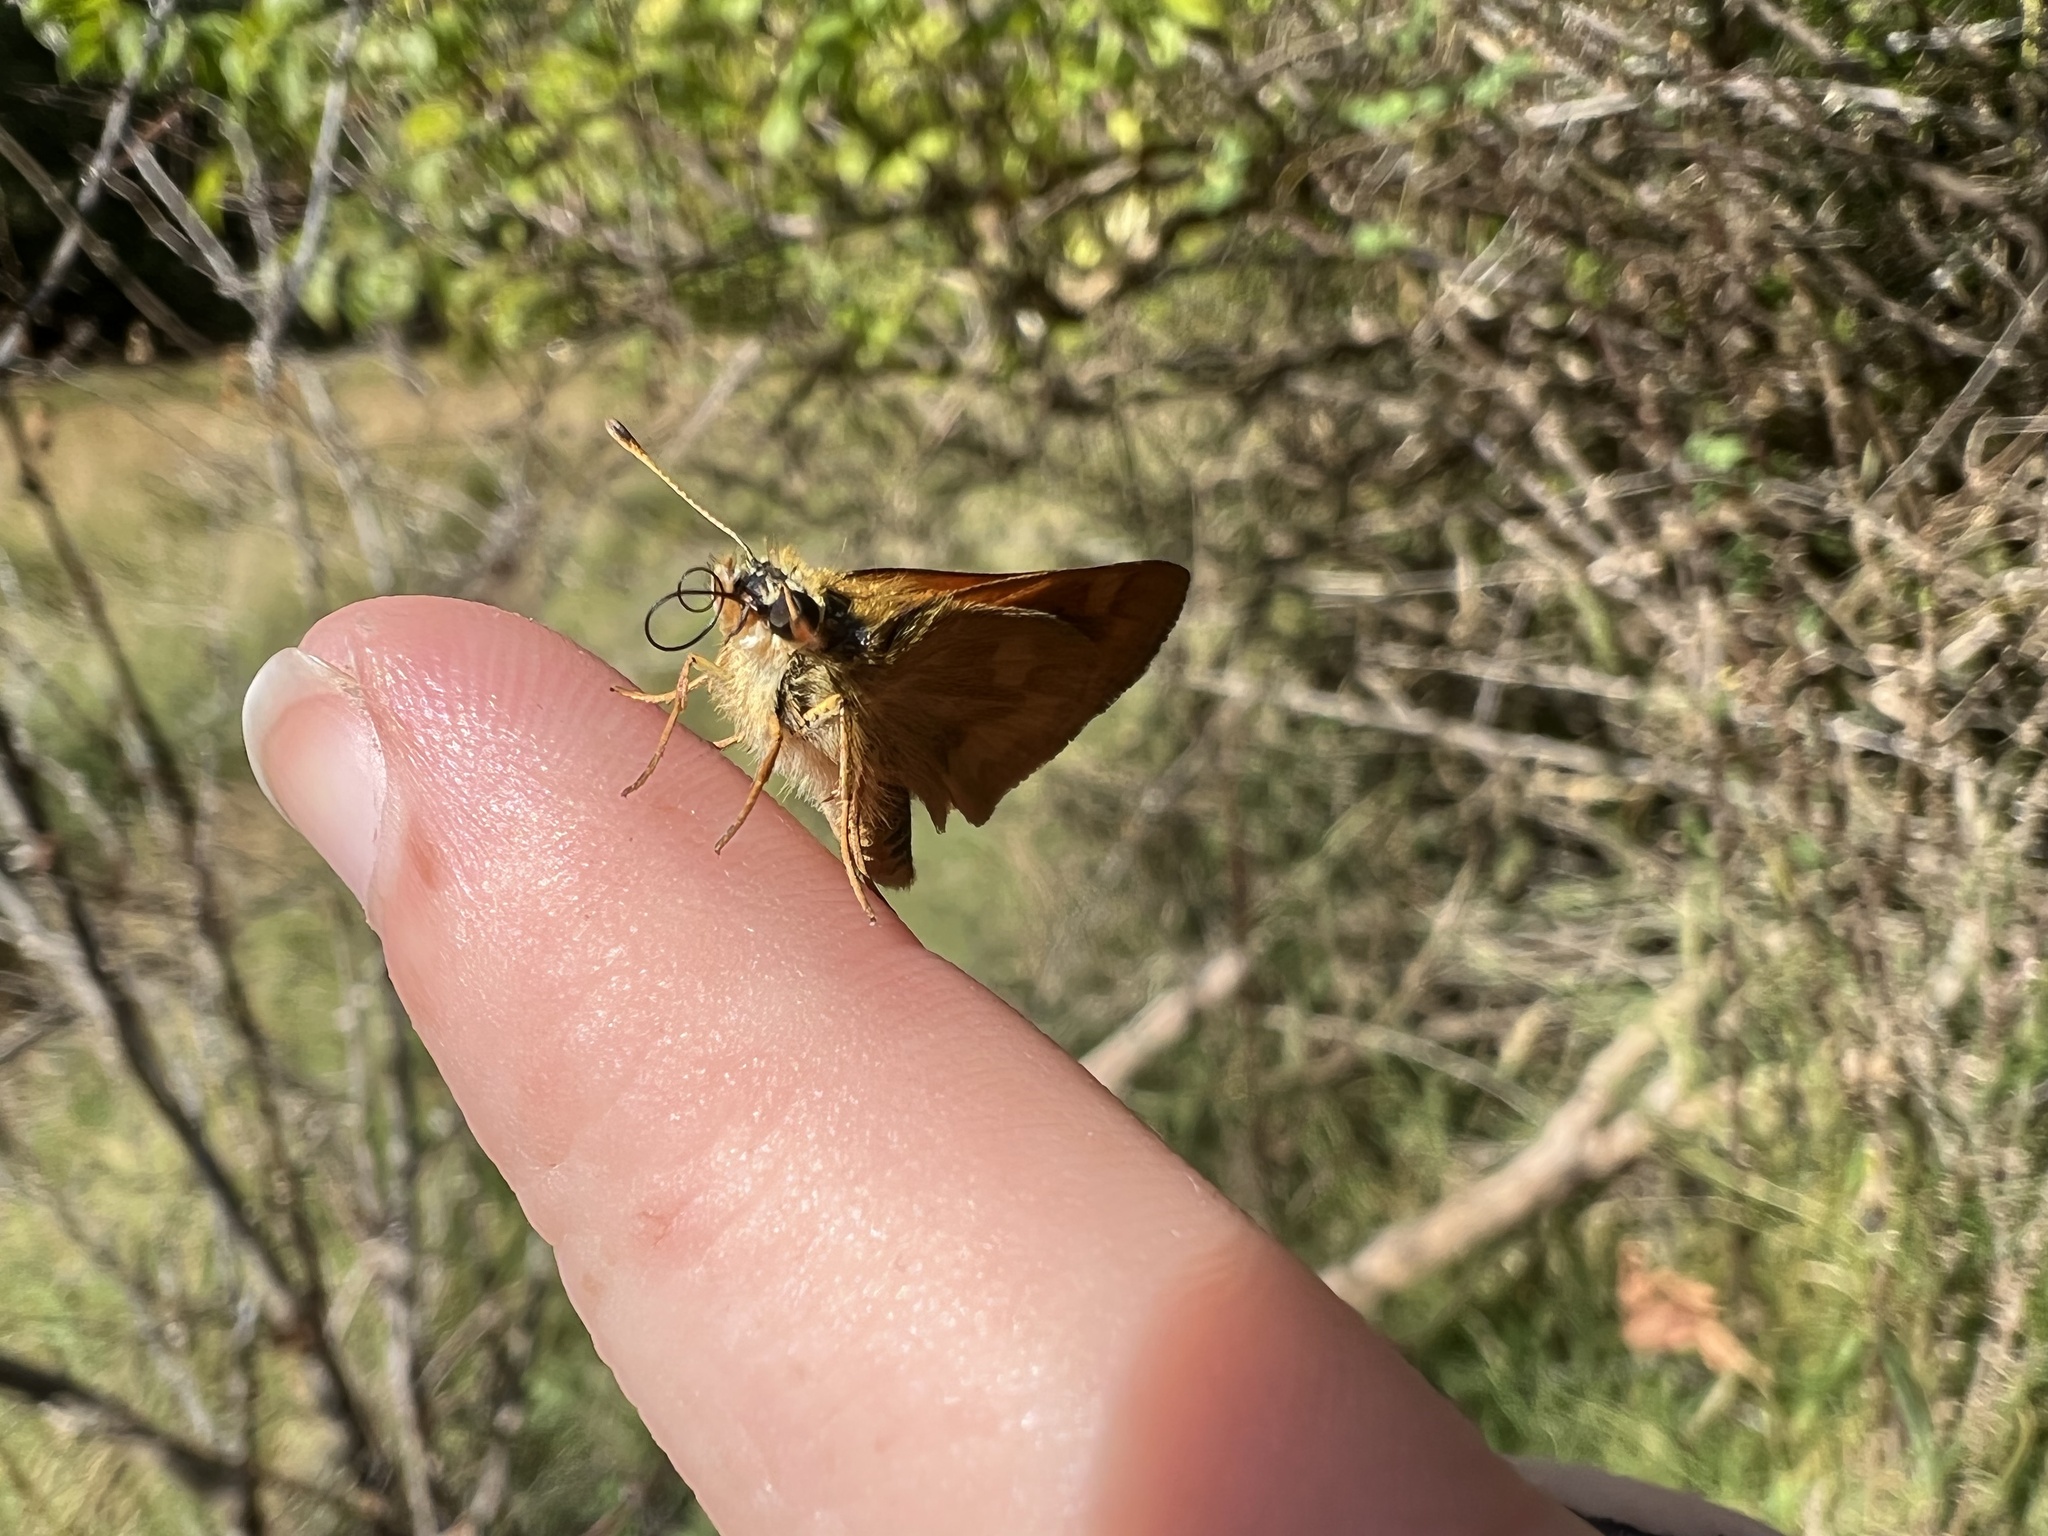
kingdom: Animalia
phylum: Arthropoda
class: Insecta
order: Lepidoptera
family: Hesperiidae
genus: Ochlodes
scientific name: Ochlodes sylvanoides
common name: Woodland skipper
